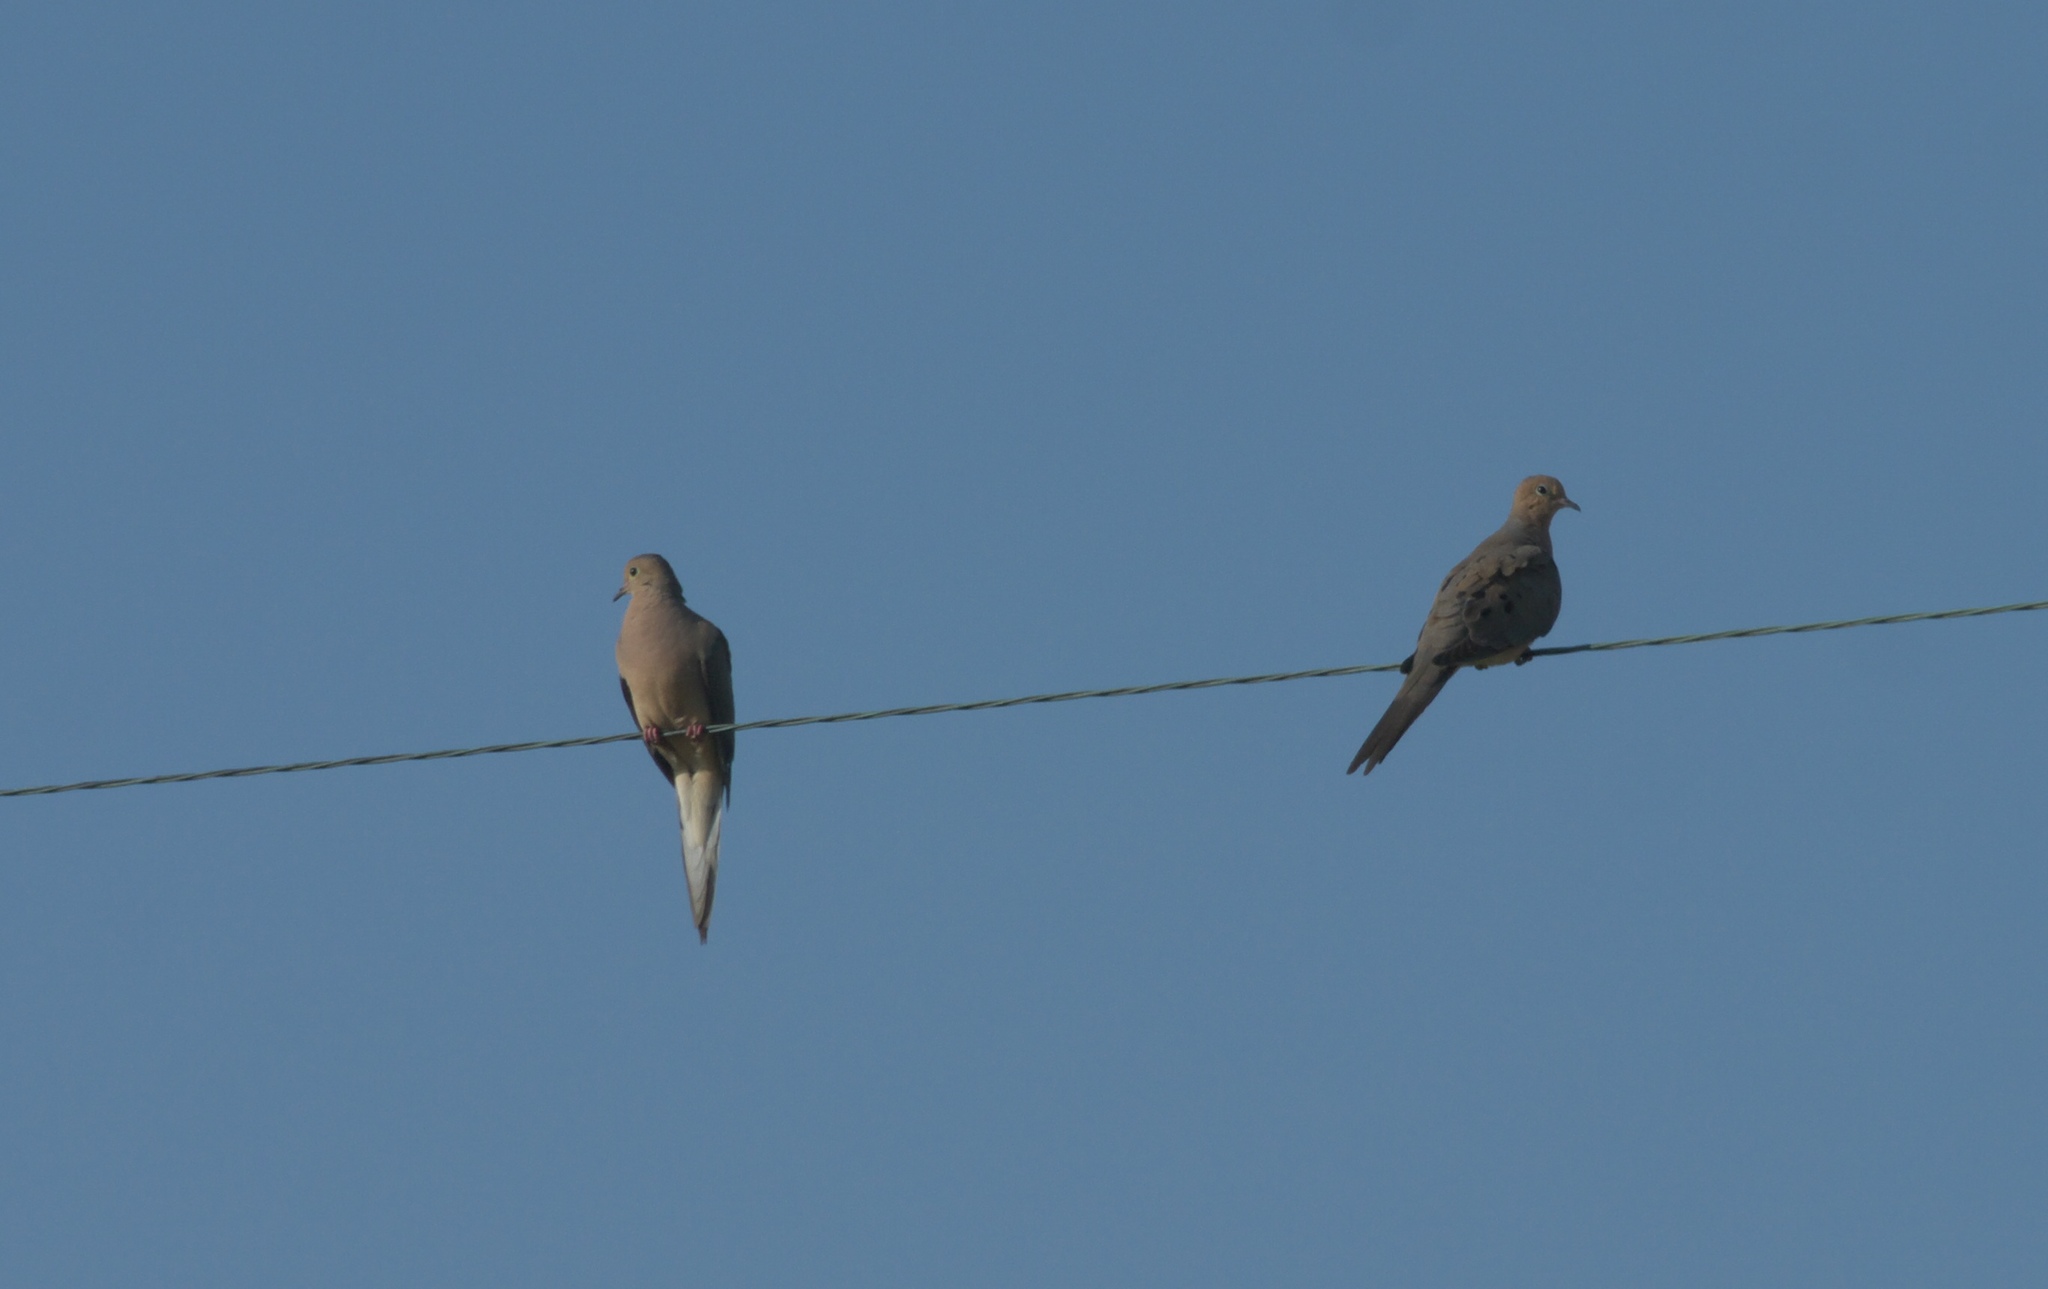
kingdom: Animalia
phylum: Chordata
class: Aves
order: Columbiformes
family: Columbidae
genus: Zenaida
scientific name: Zenaida macroura
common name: Mourning dove
